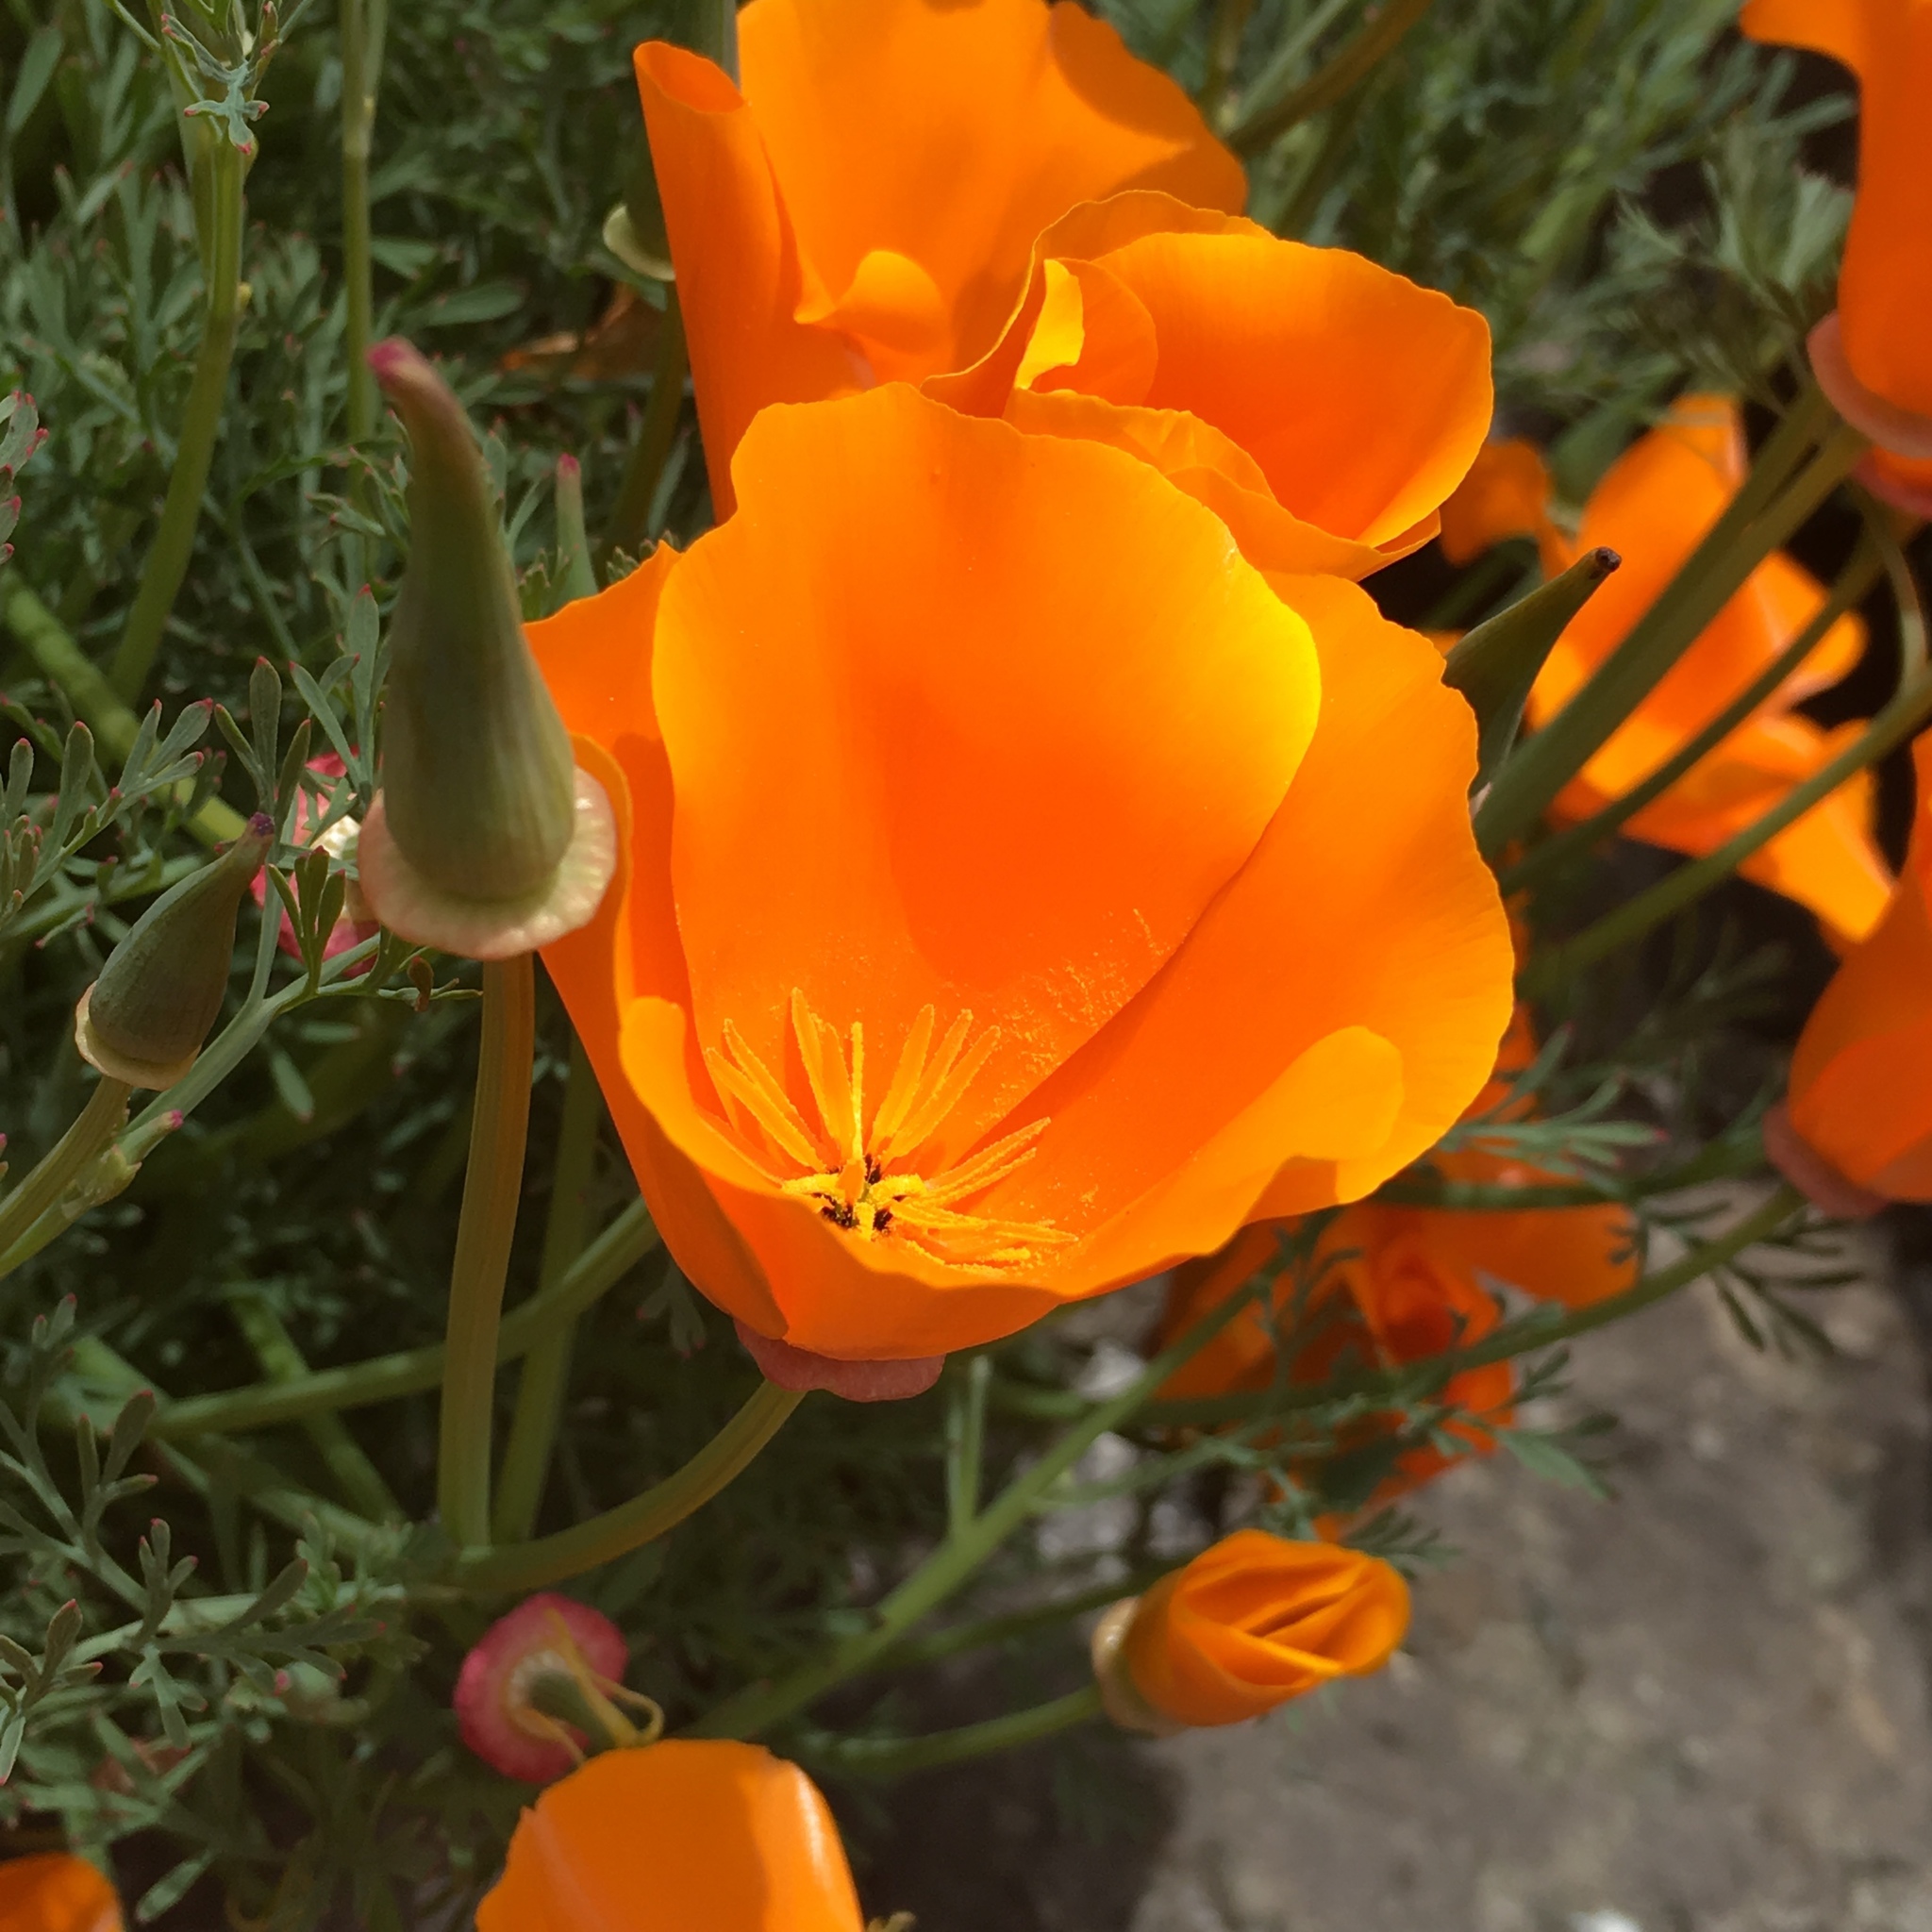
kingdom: Plantae
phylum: Tracheophyta
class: Magnoliopsida
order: Ranunculales
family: Papaveraceae
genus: Eschscholzia
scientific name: Eschscholzia californica
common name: California poppy
